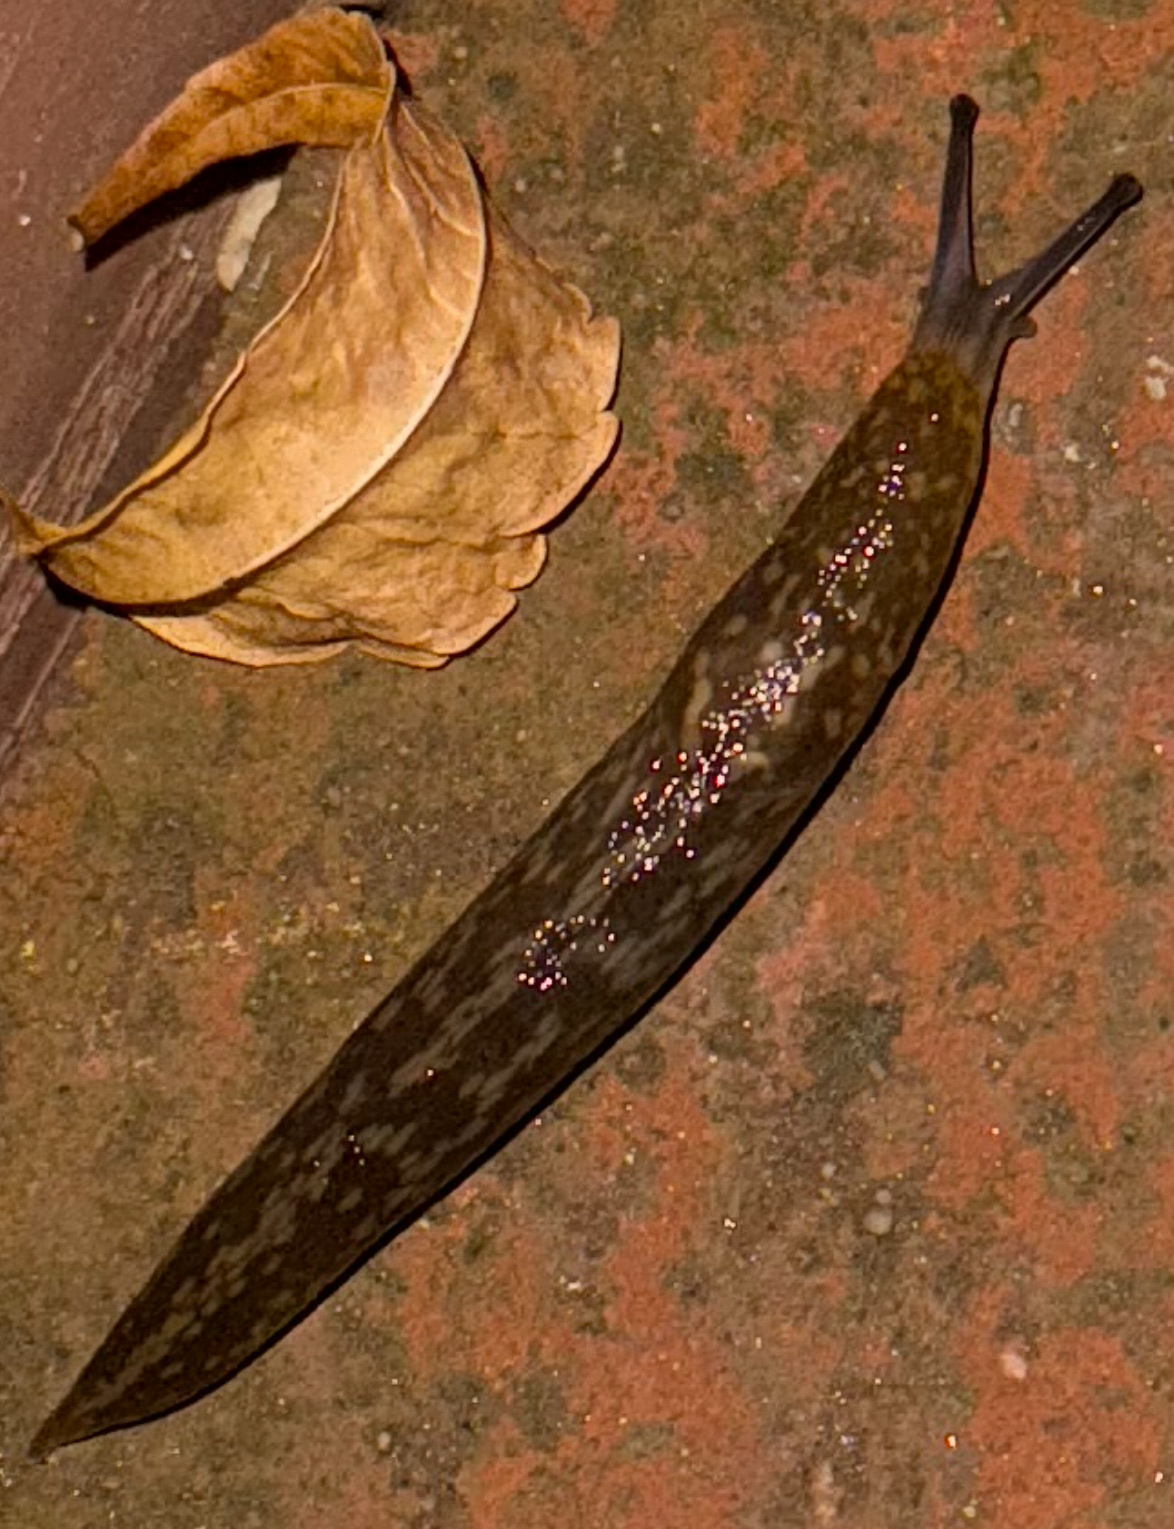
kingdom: Animalia
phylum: Mollusca
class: Gastropoda
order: Stylommatophora
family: Limacidae
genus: Limacus
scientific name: Limacus flavus
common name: Yellow gardenslug
